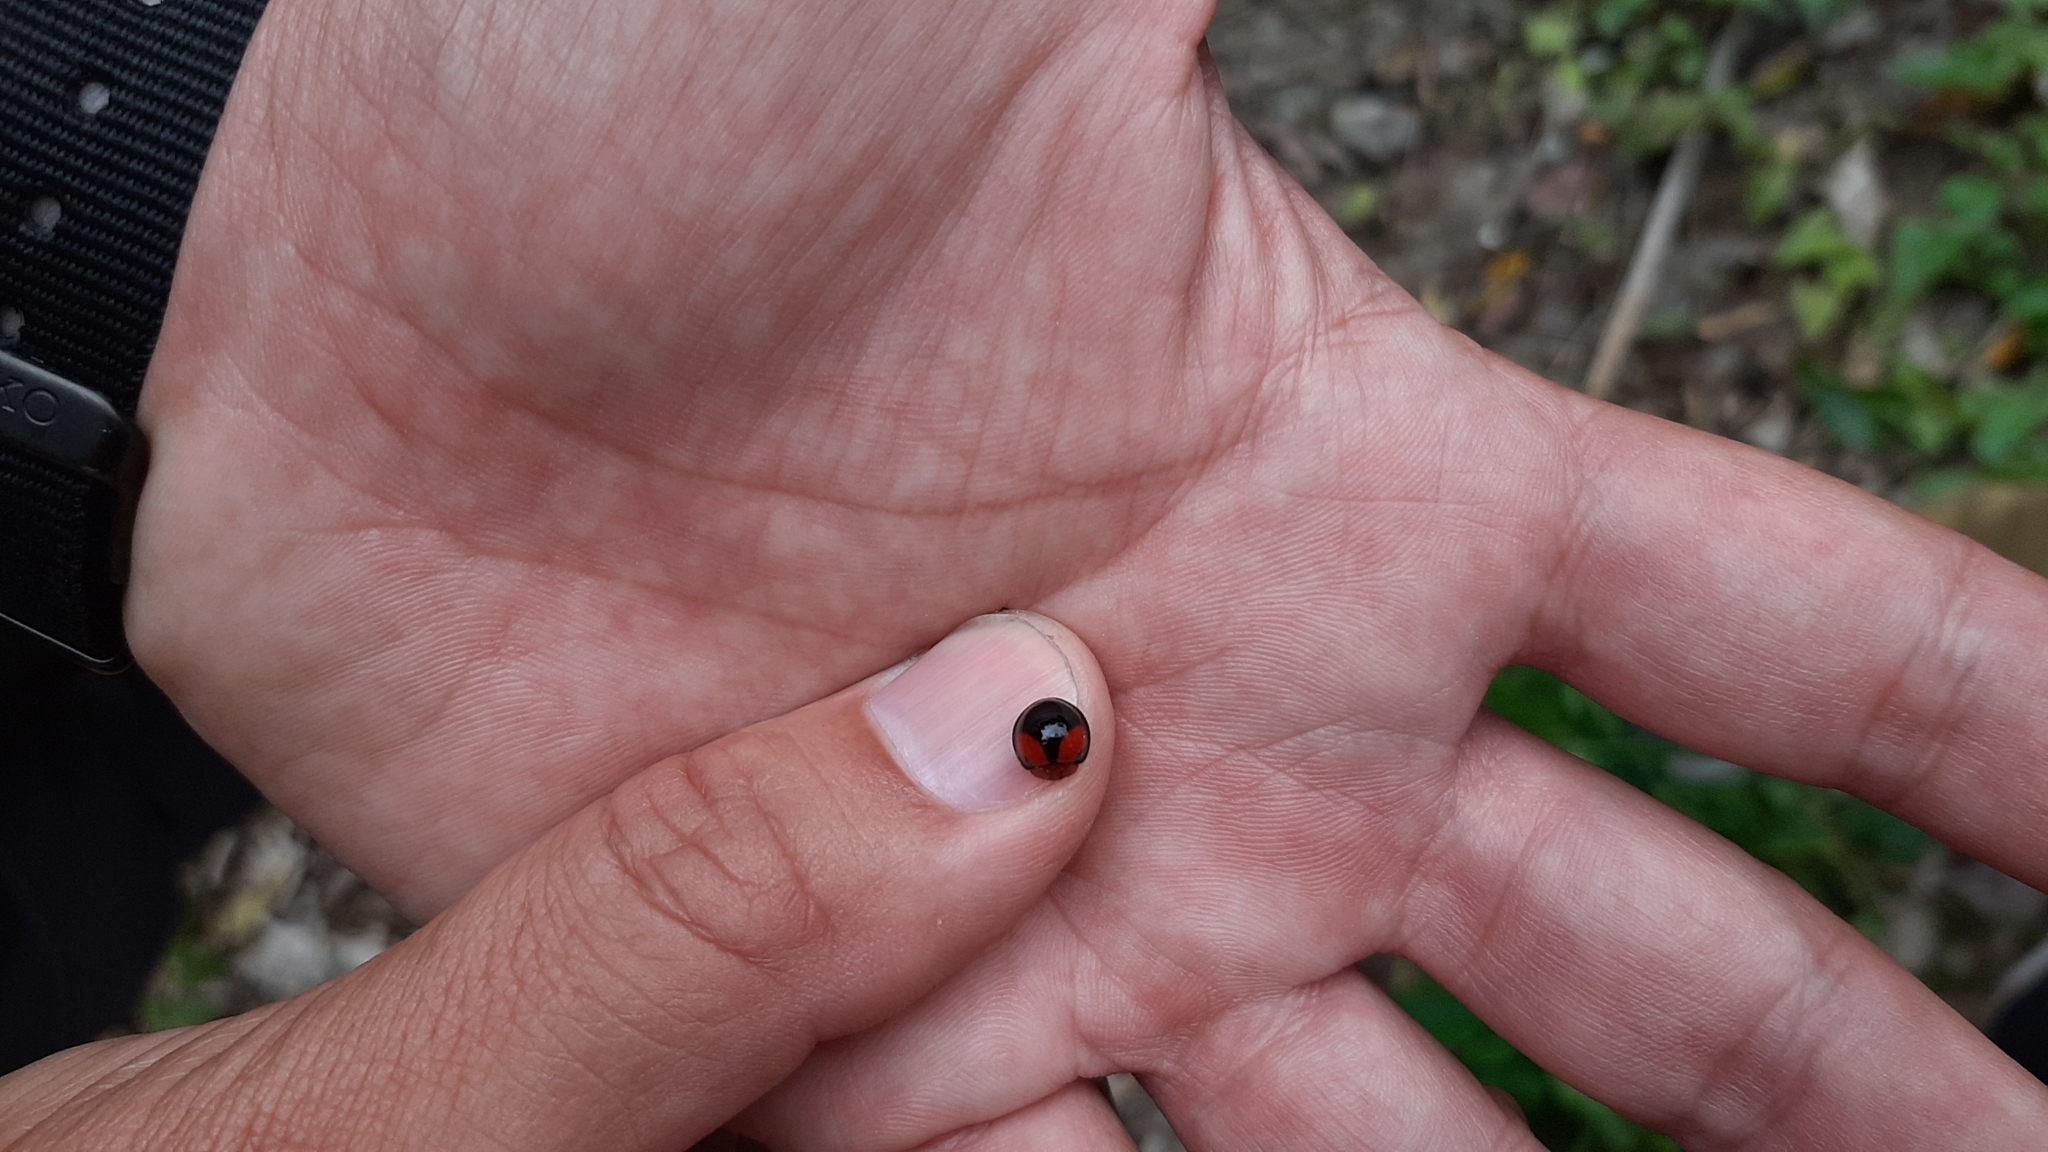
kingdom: Animalia
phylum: Arthropoda
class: Insecta
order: Coleoptera
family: Coccinellidae
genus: Phrynocaria
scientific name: Phrynocaria circumusta
